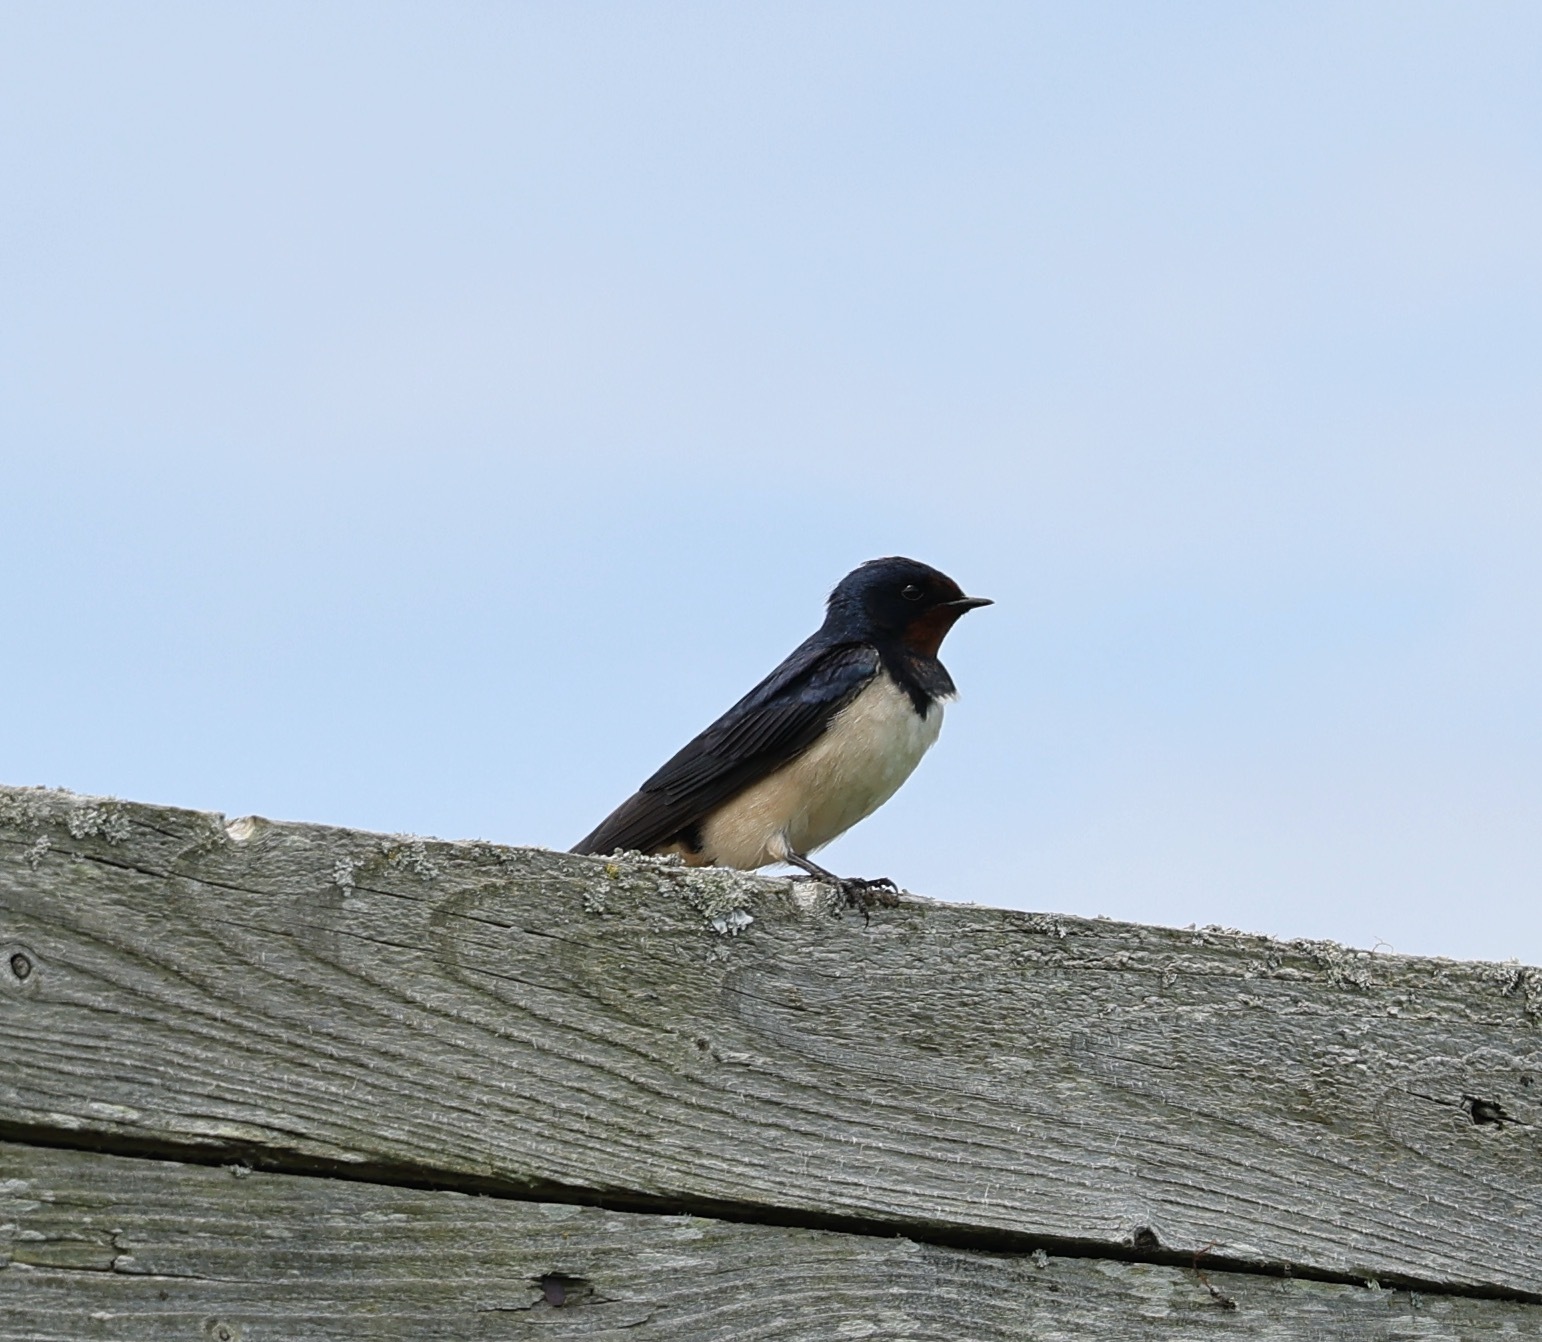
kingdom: Animalia
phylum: Chordata
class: Aves
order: Passeriformes
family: Hirundinidae
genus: Hirundo
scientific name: Hirundo rustica
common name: Barn swallow
